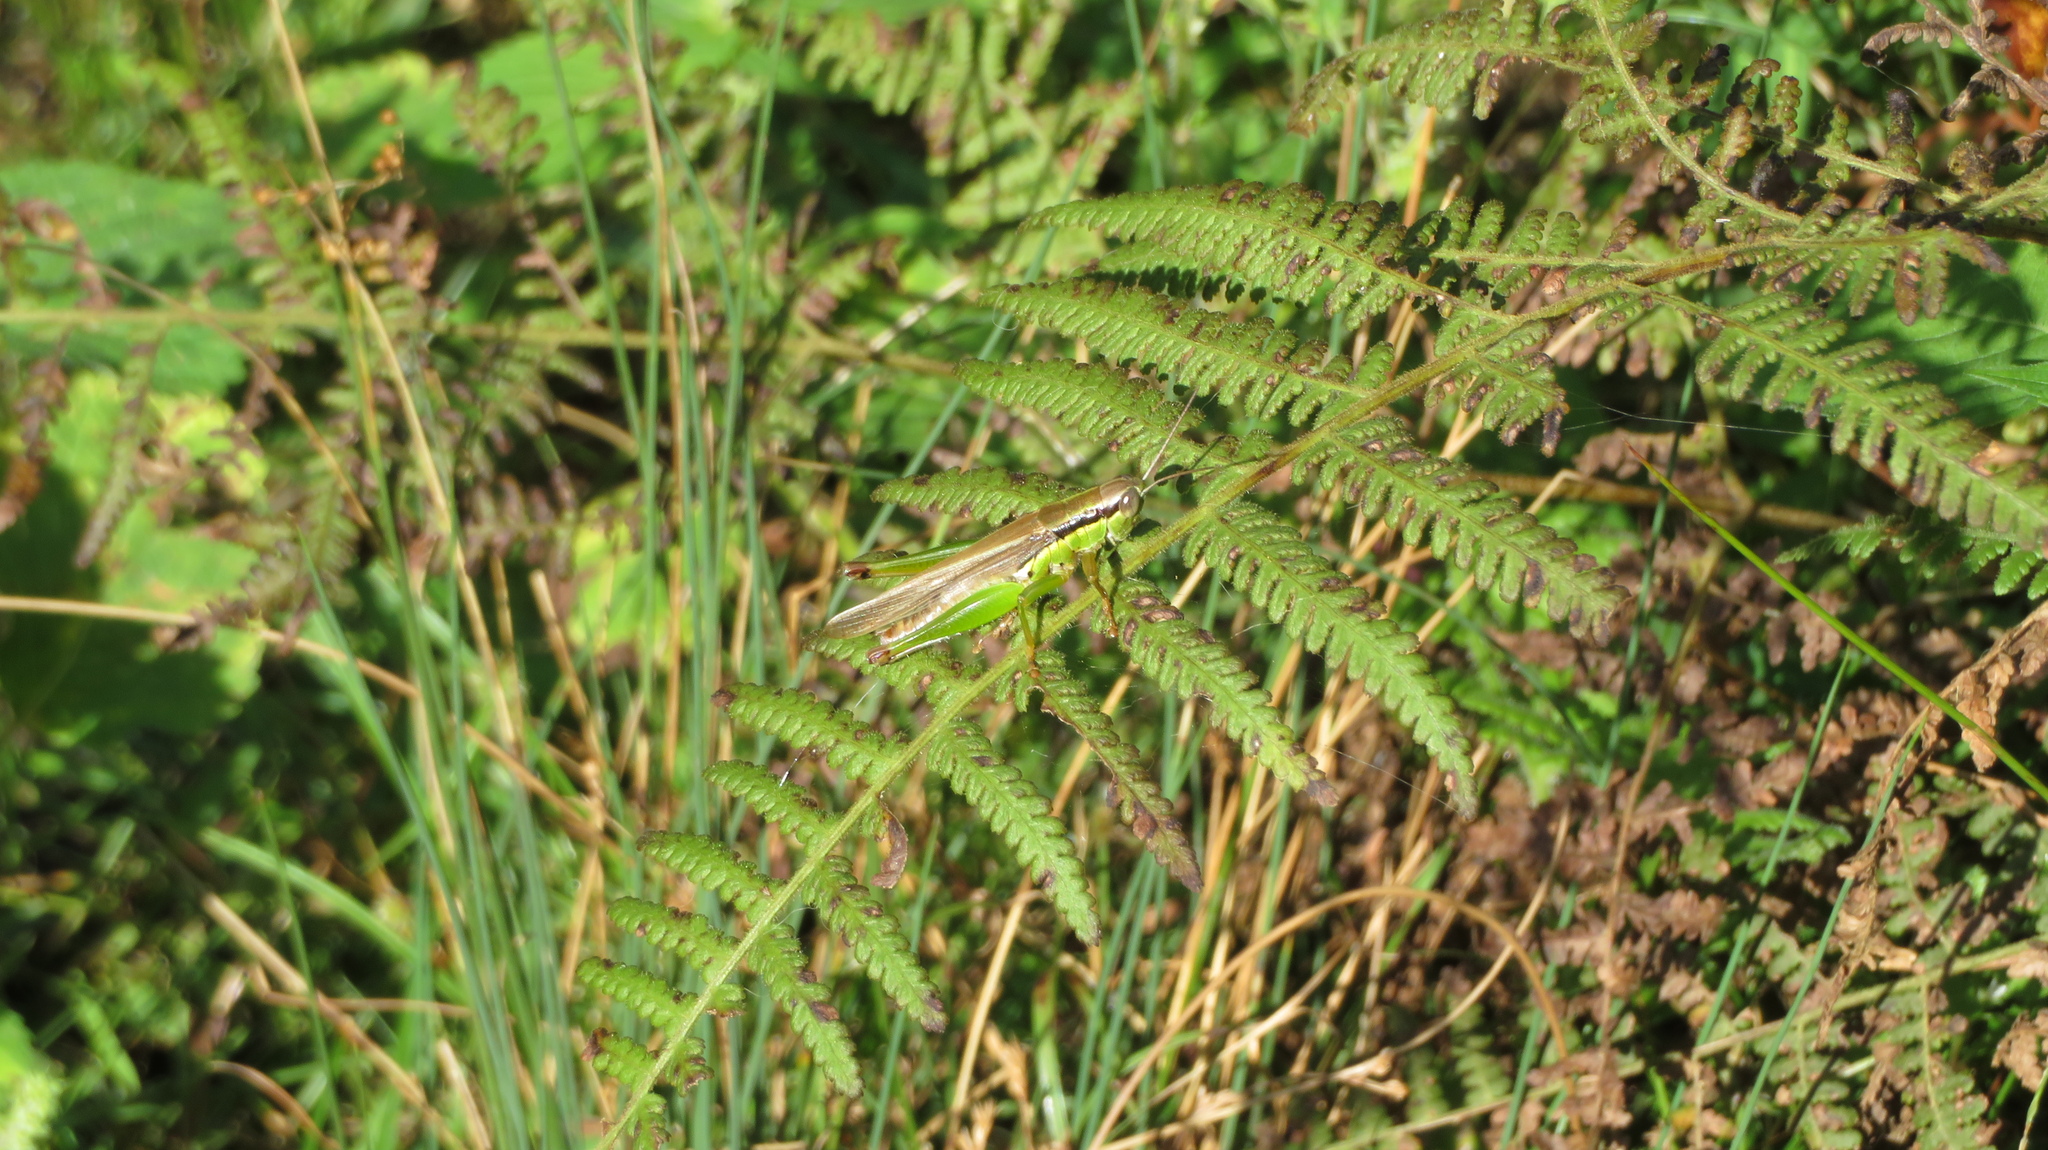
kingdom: Animalia
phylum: Arthropoda
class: Insecta
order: Orthoptera
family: Acrididae
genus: Oxya
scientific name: Oxya japonica
